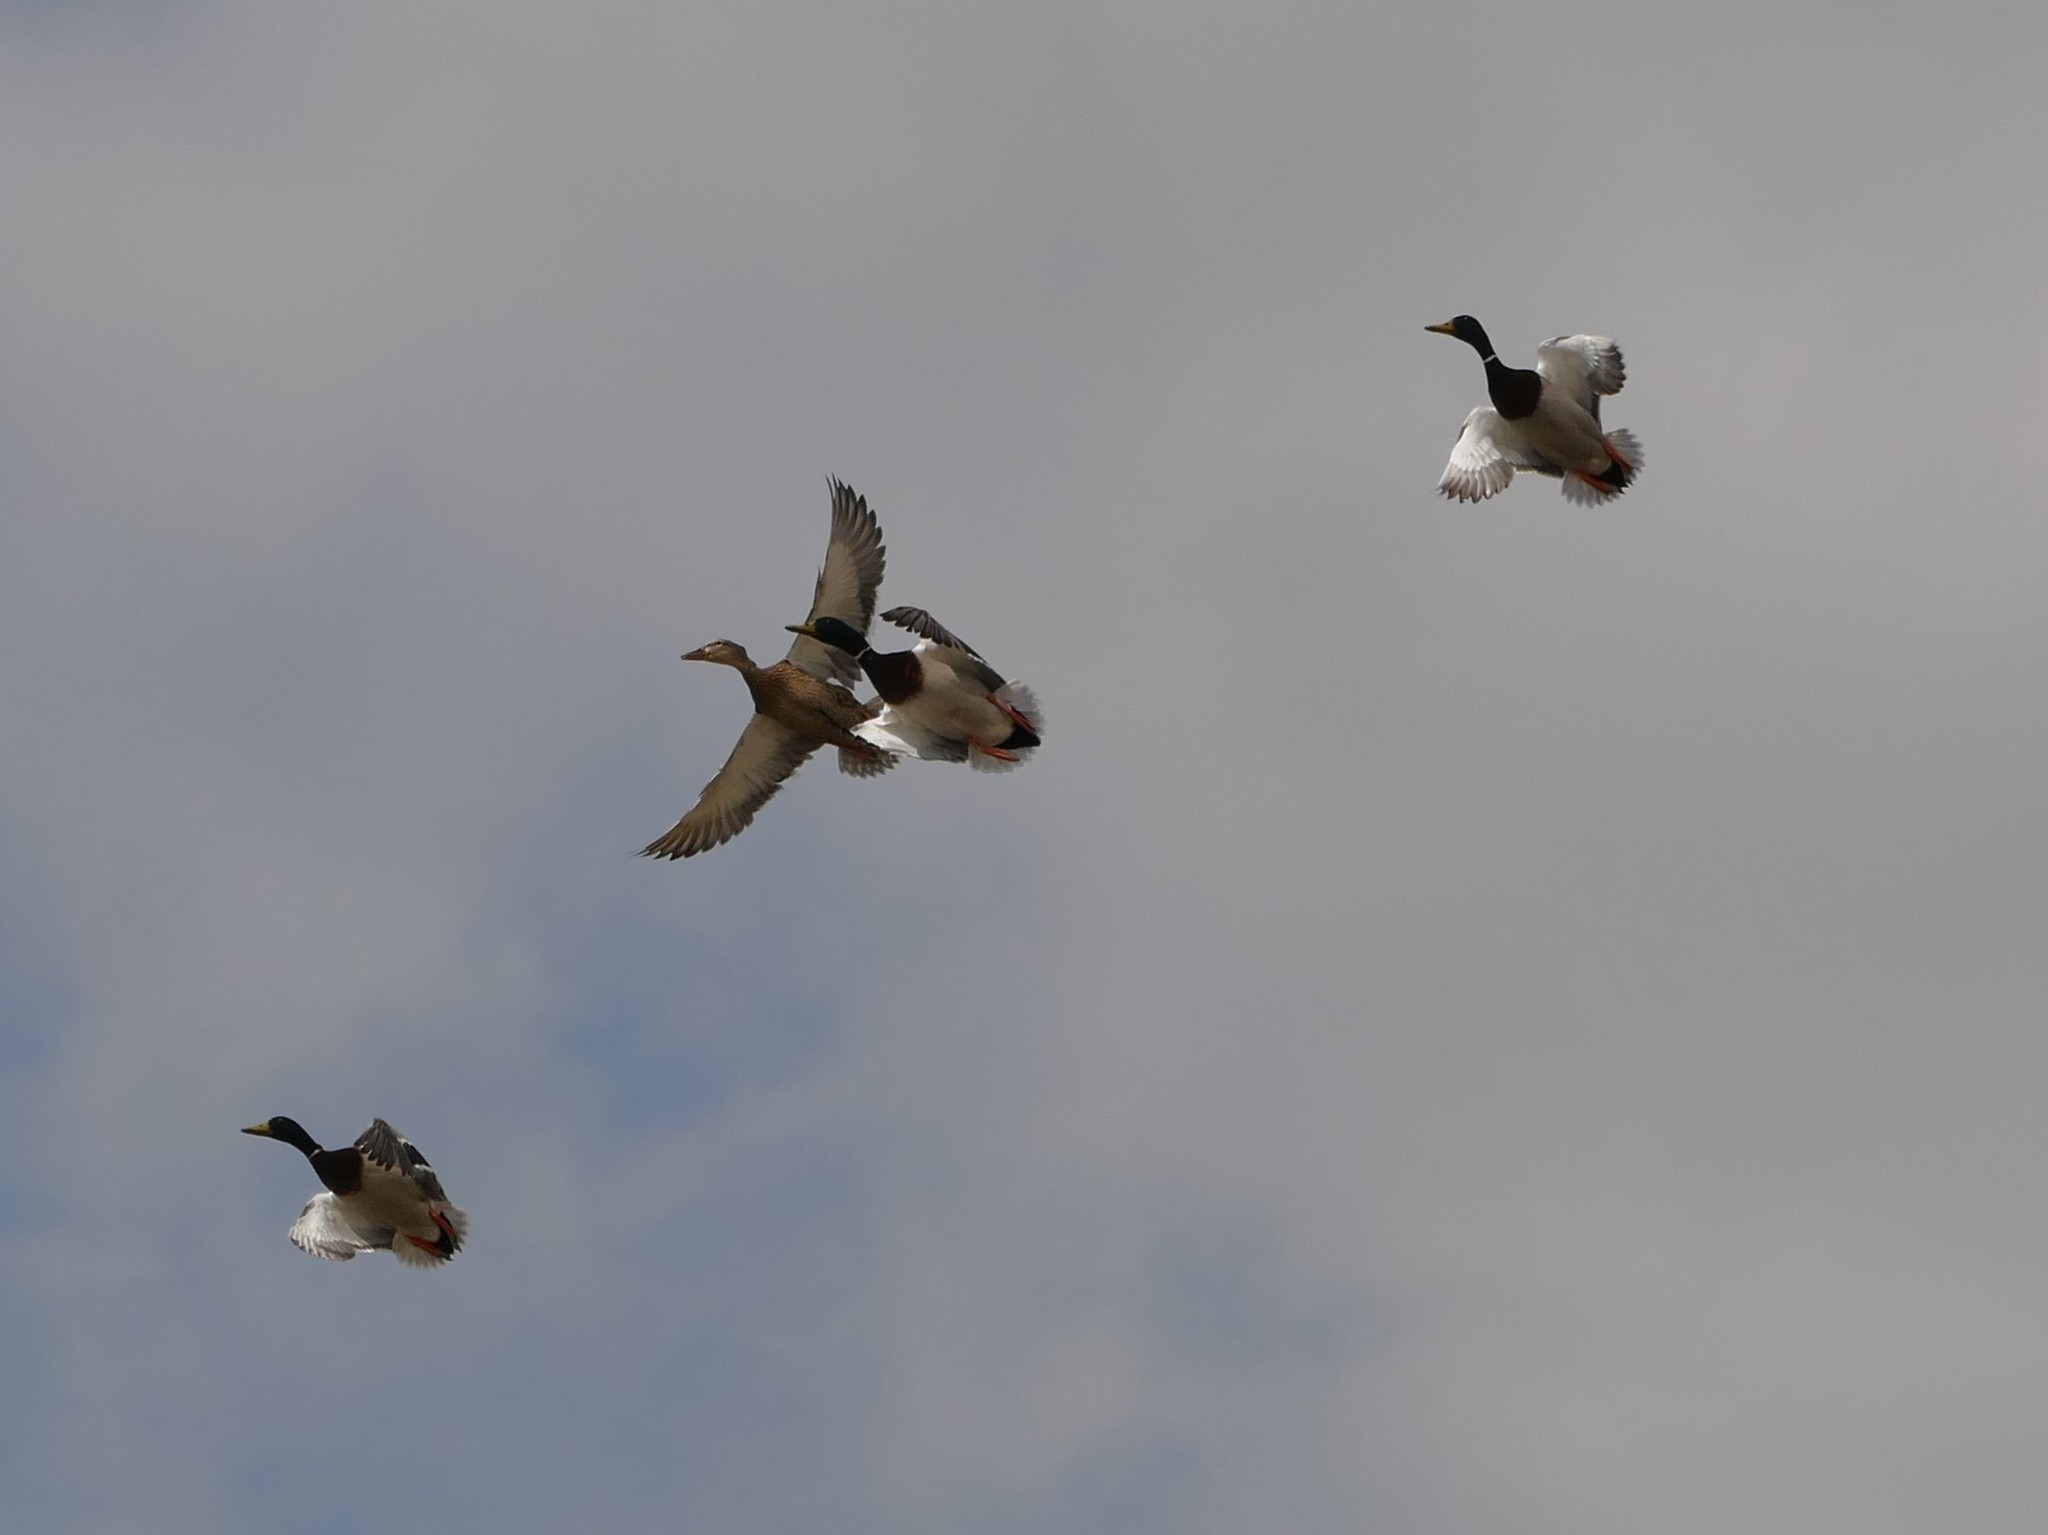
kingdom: Animalia
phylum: Chordata
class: Aves
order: Anseriformes
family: Anatidae
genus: Anas
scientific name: Anas platyrhynchos
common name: Mallard
